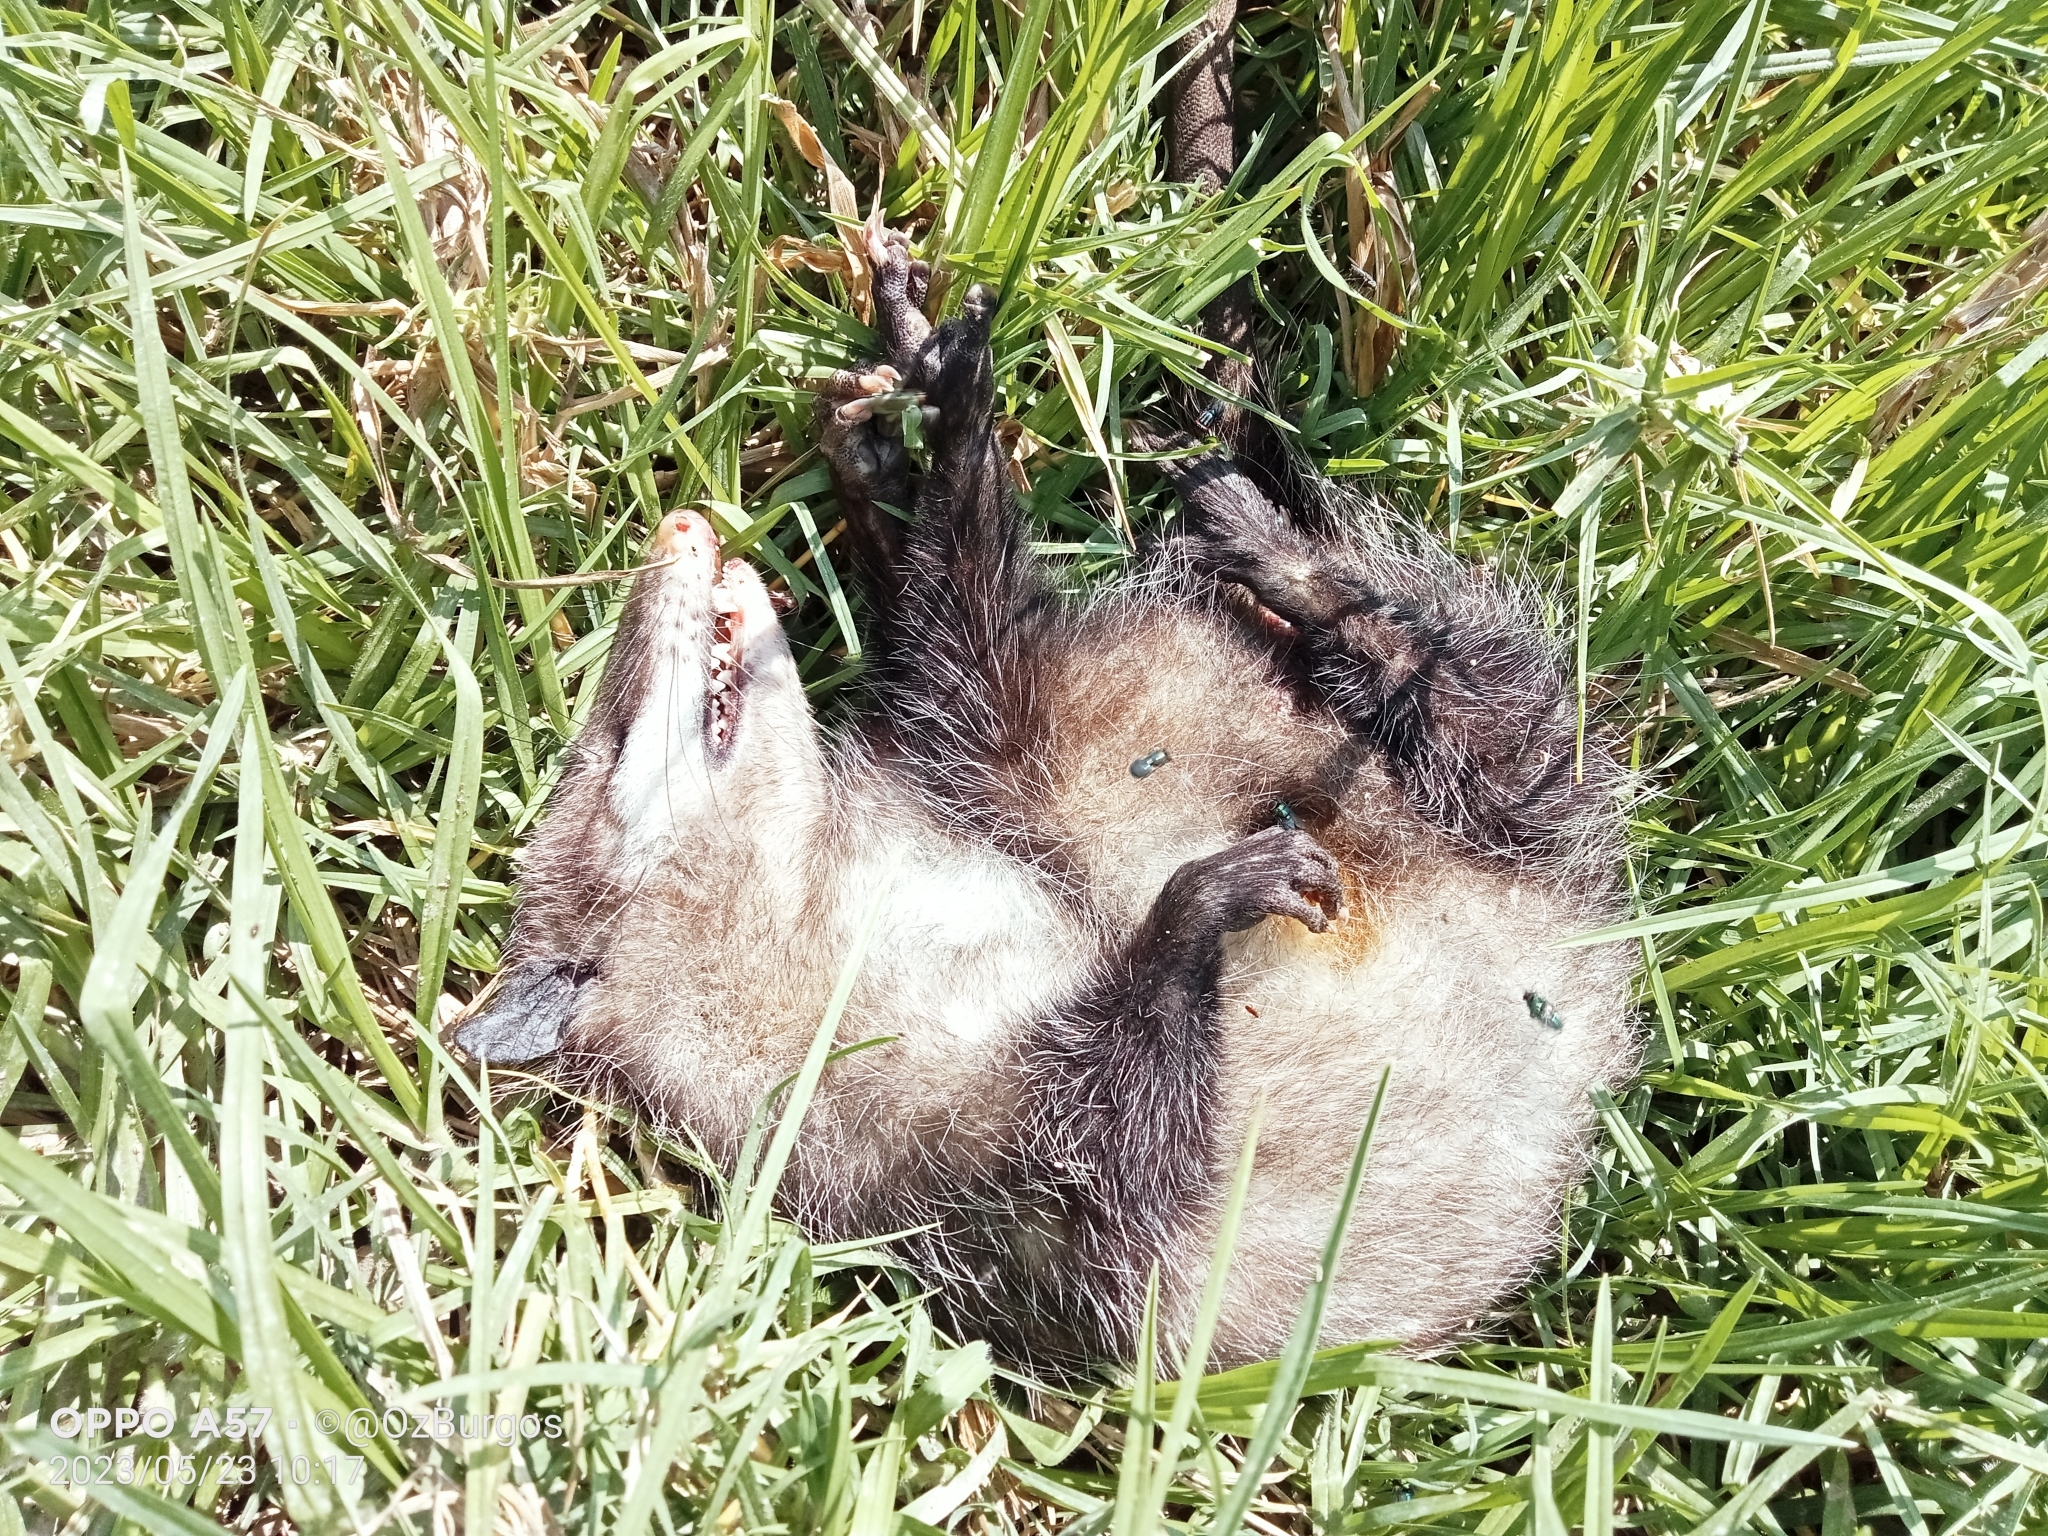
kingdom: Animalia
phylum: Chordata
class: Mammalia
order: Didelphimorphia
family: Didelphidae
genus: Didelphis
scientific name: Didelphis virginiana
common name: Virginia opossum
